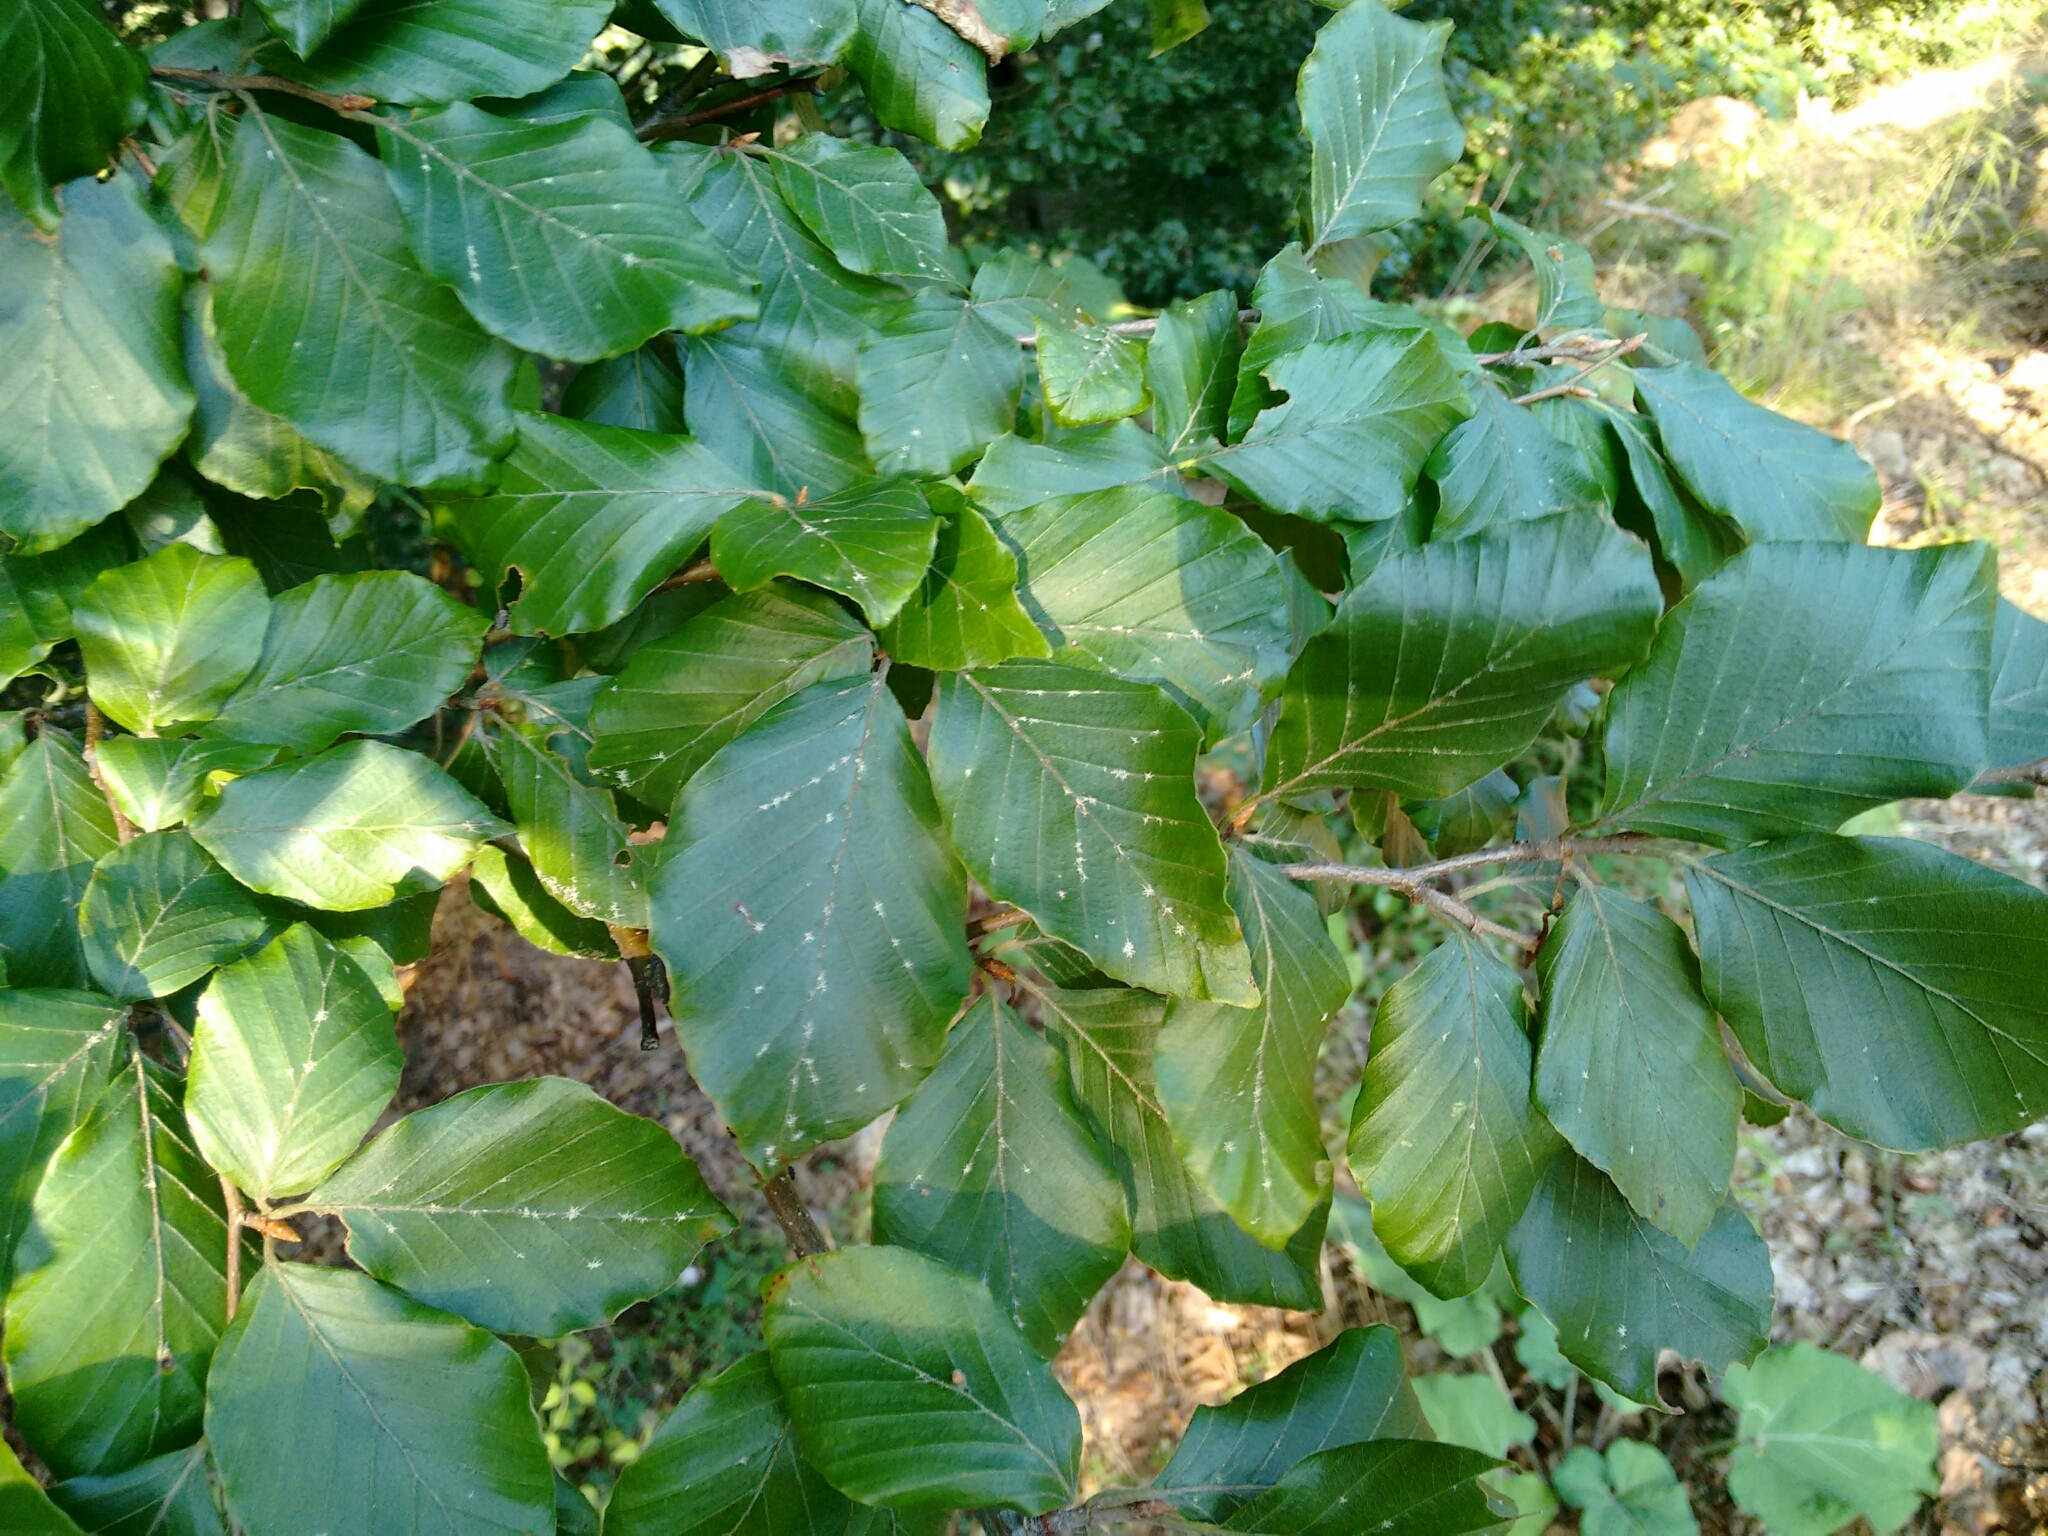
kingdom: Plantae
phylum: Tracheophyta
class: Magnoliopsida
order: Fagales
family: Fagaceae
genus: Fagus
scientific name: Fagus sylvatica
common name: Beech
